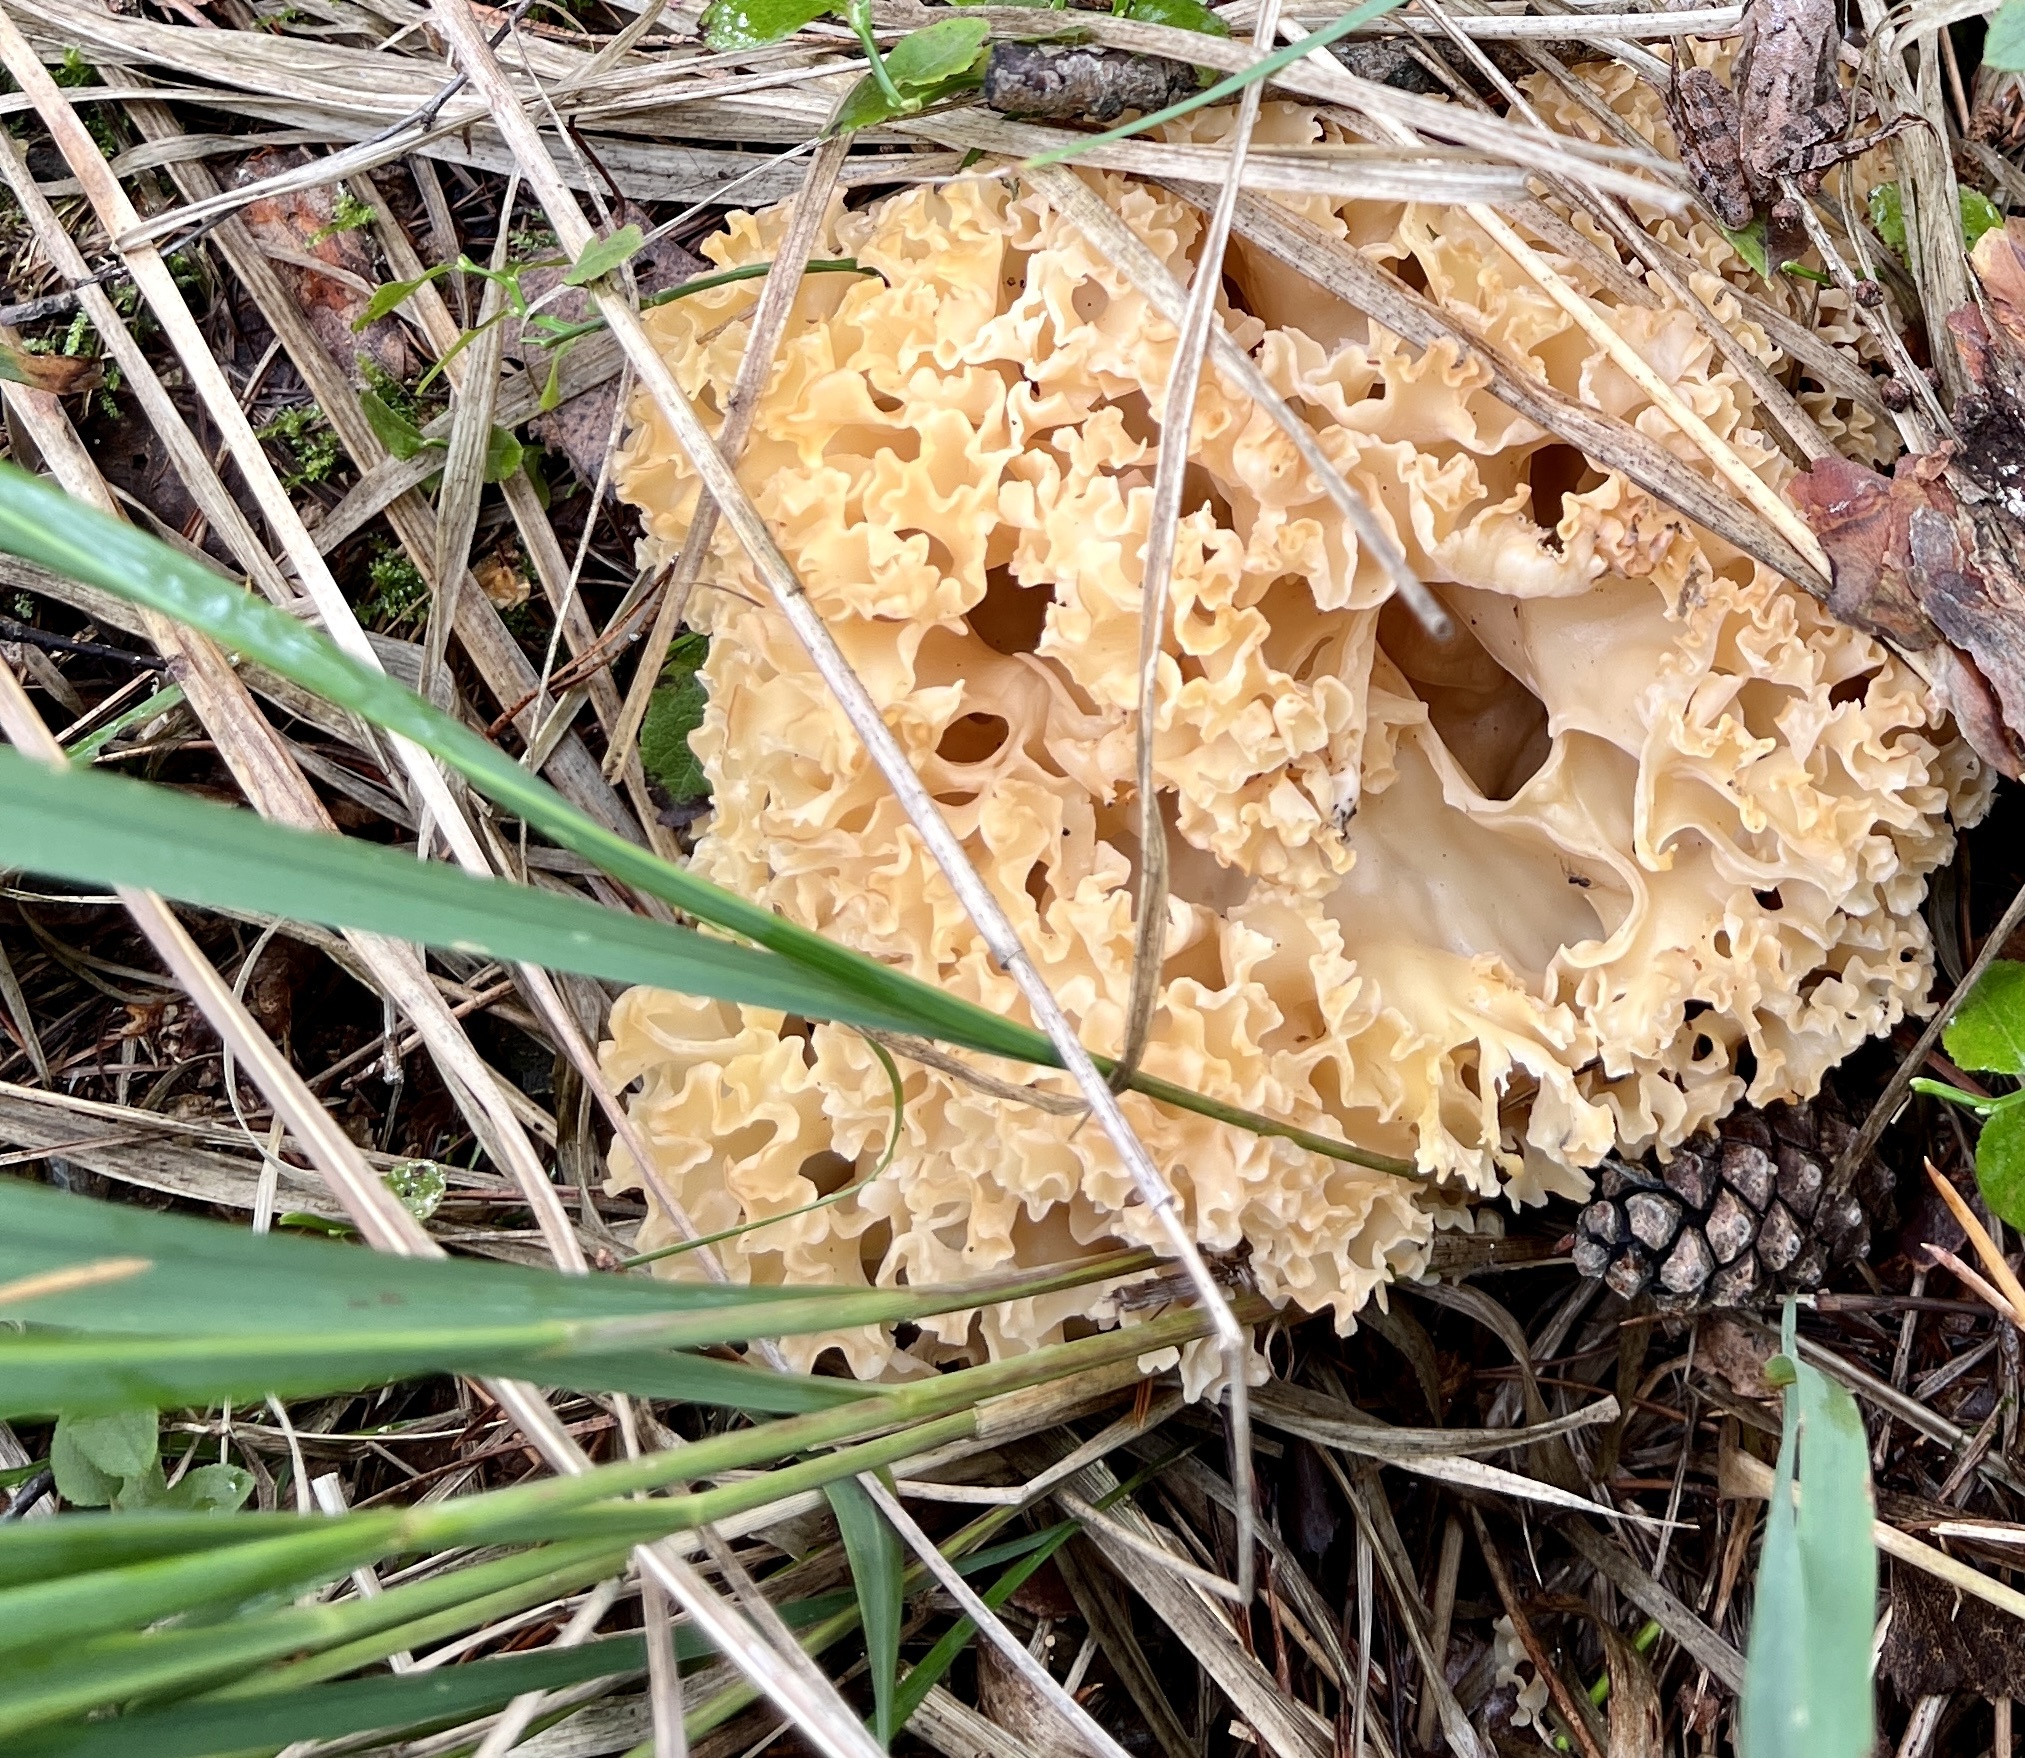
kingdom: Fungi
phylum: Basidiomycota
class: Agaricomycetes
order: Polyporales
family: Sparassidaceae
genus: Sparassis
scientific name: Sparassis crispa
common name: Brain fungus
